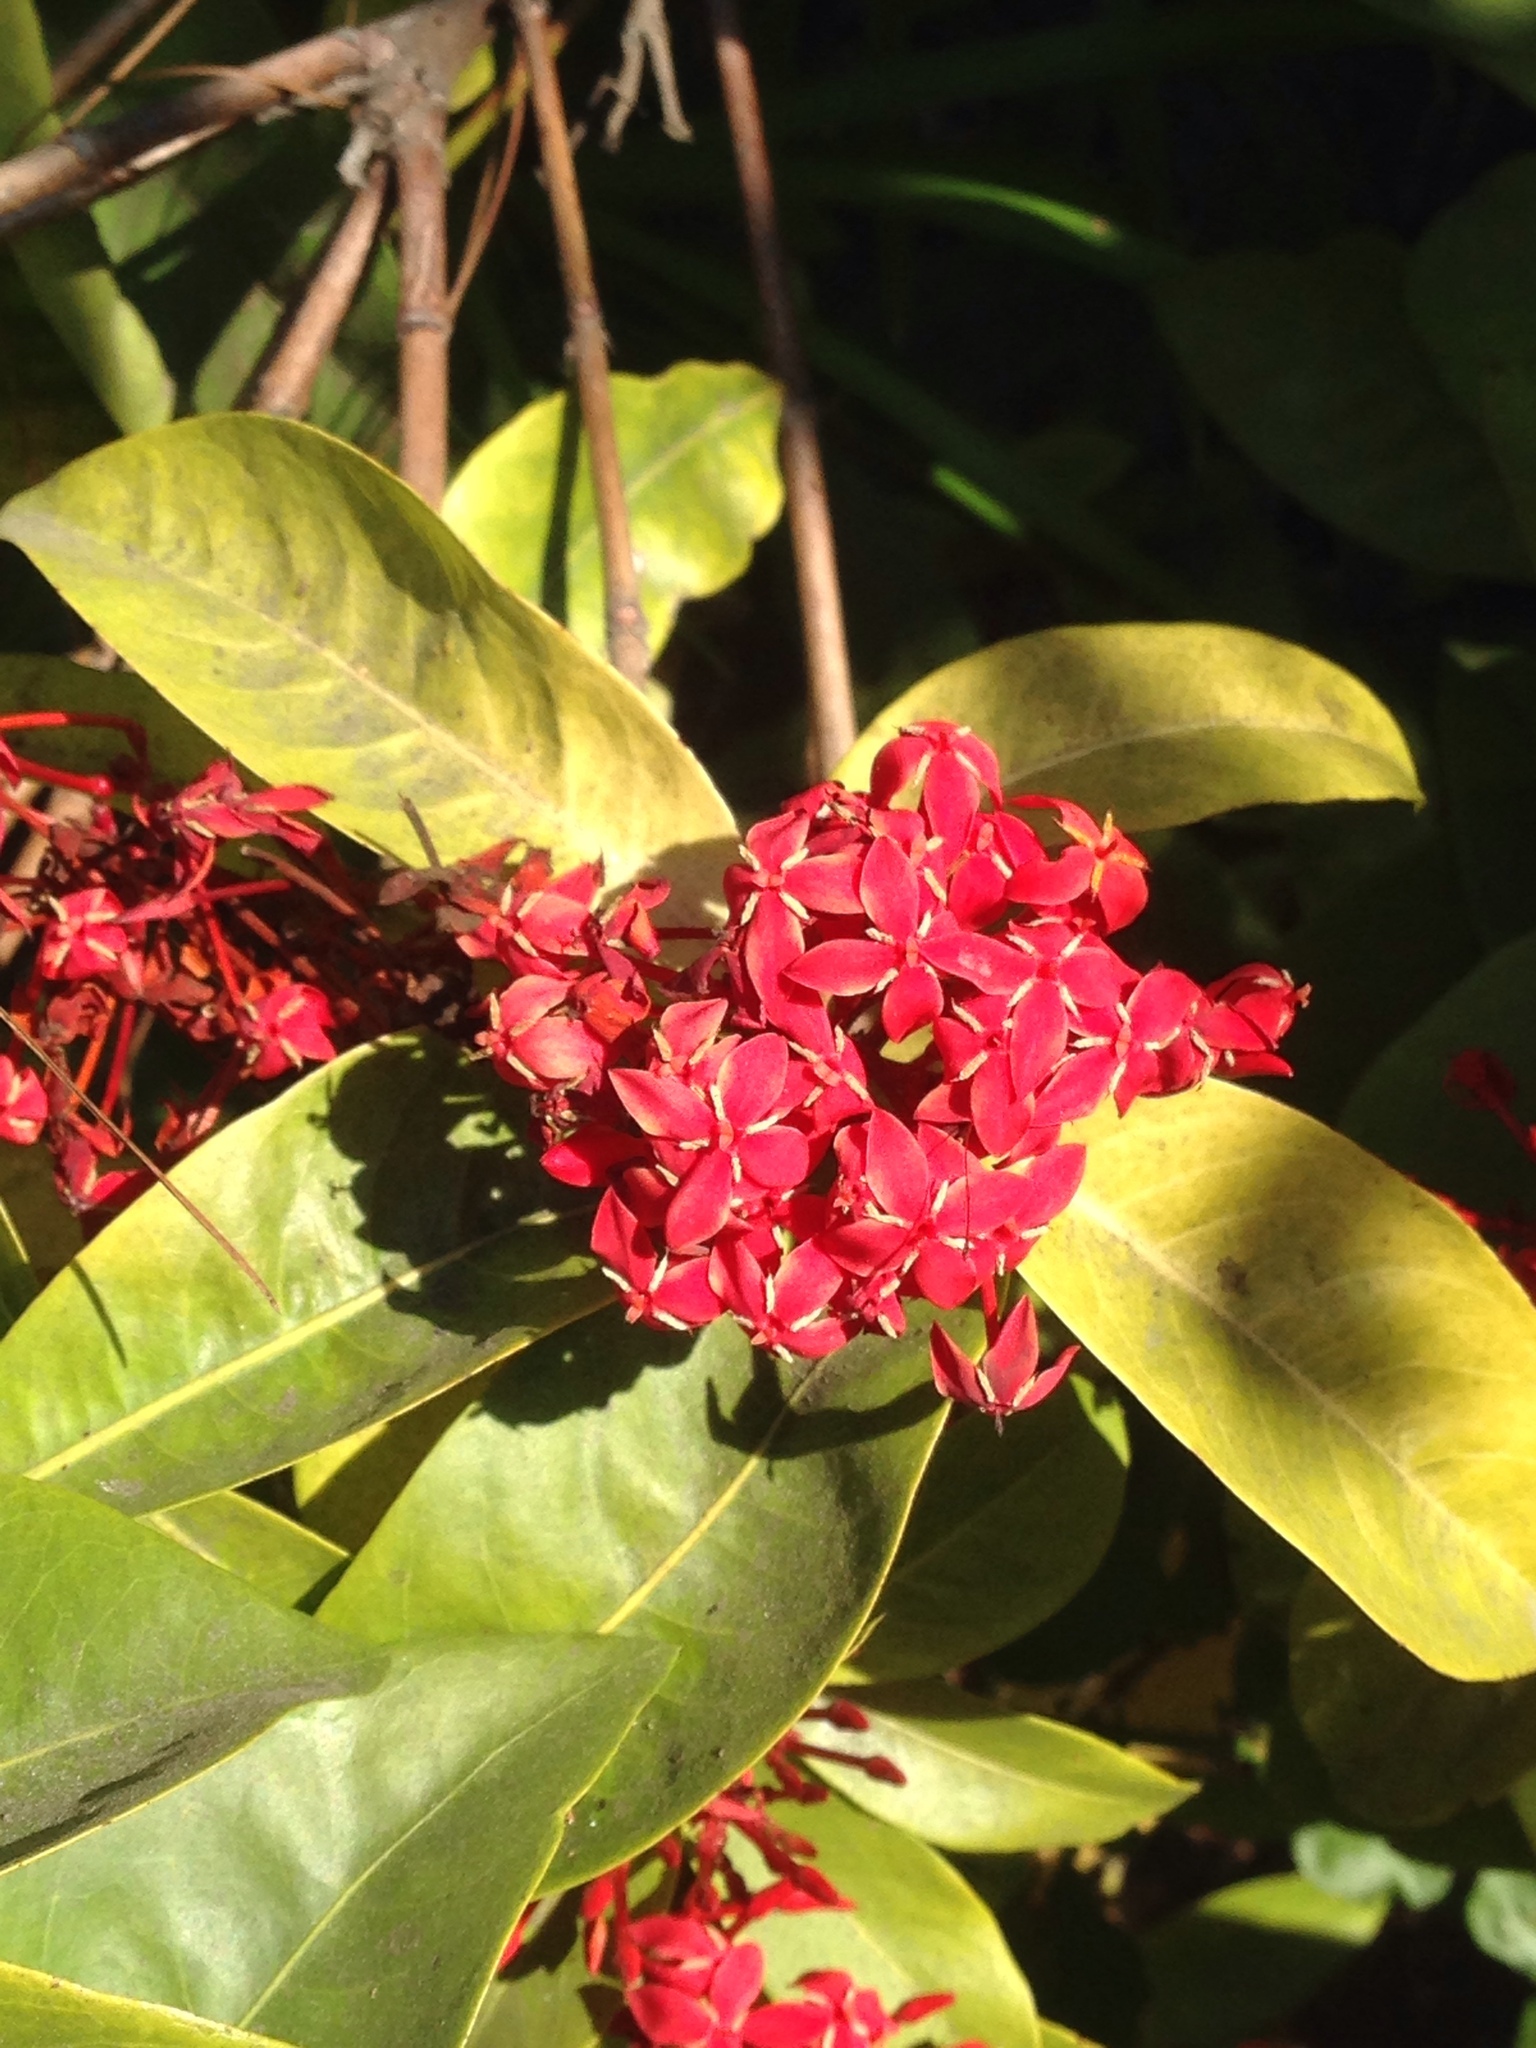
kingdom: Plantae
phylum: Tracheophyta
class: Magnoliopsida
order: Gentianales
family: Rubiaceae
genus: Ixora
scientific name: Ixora coccinea
